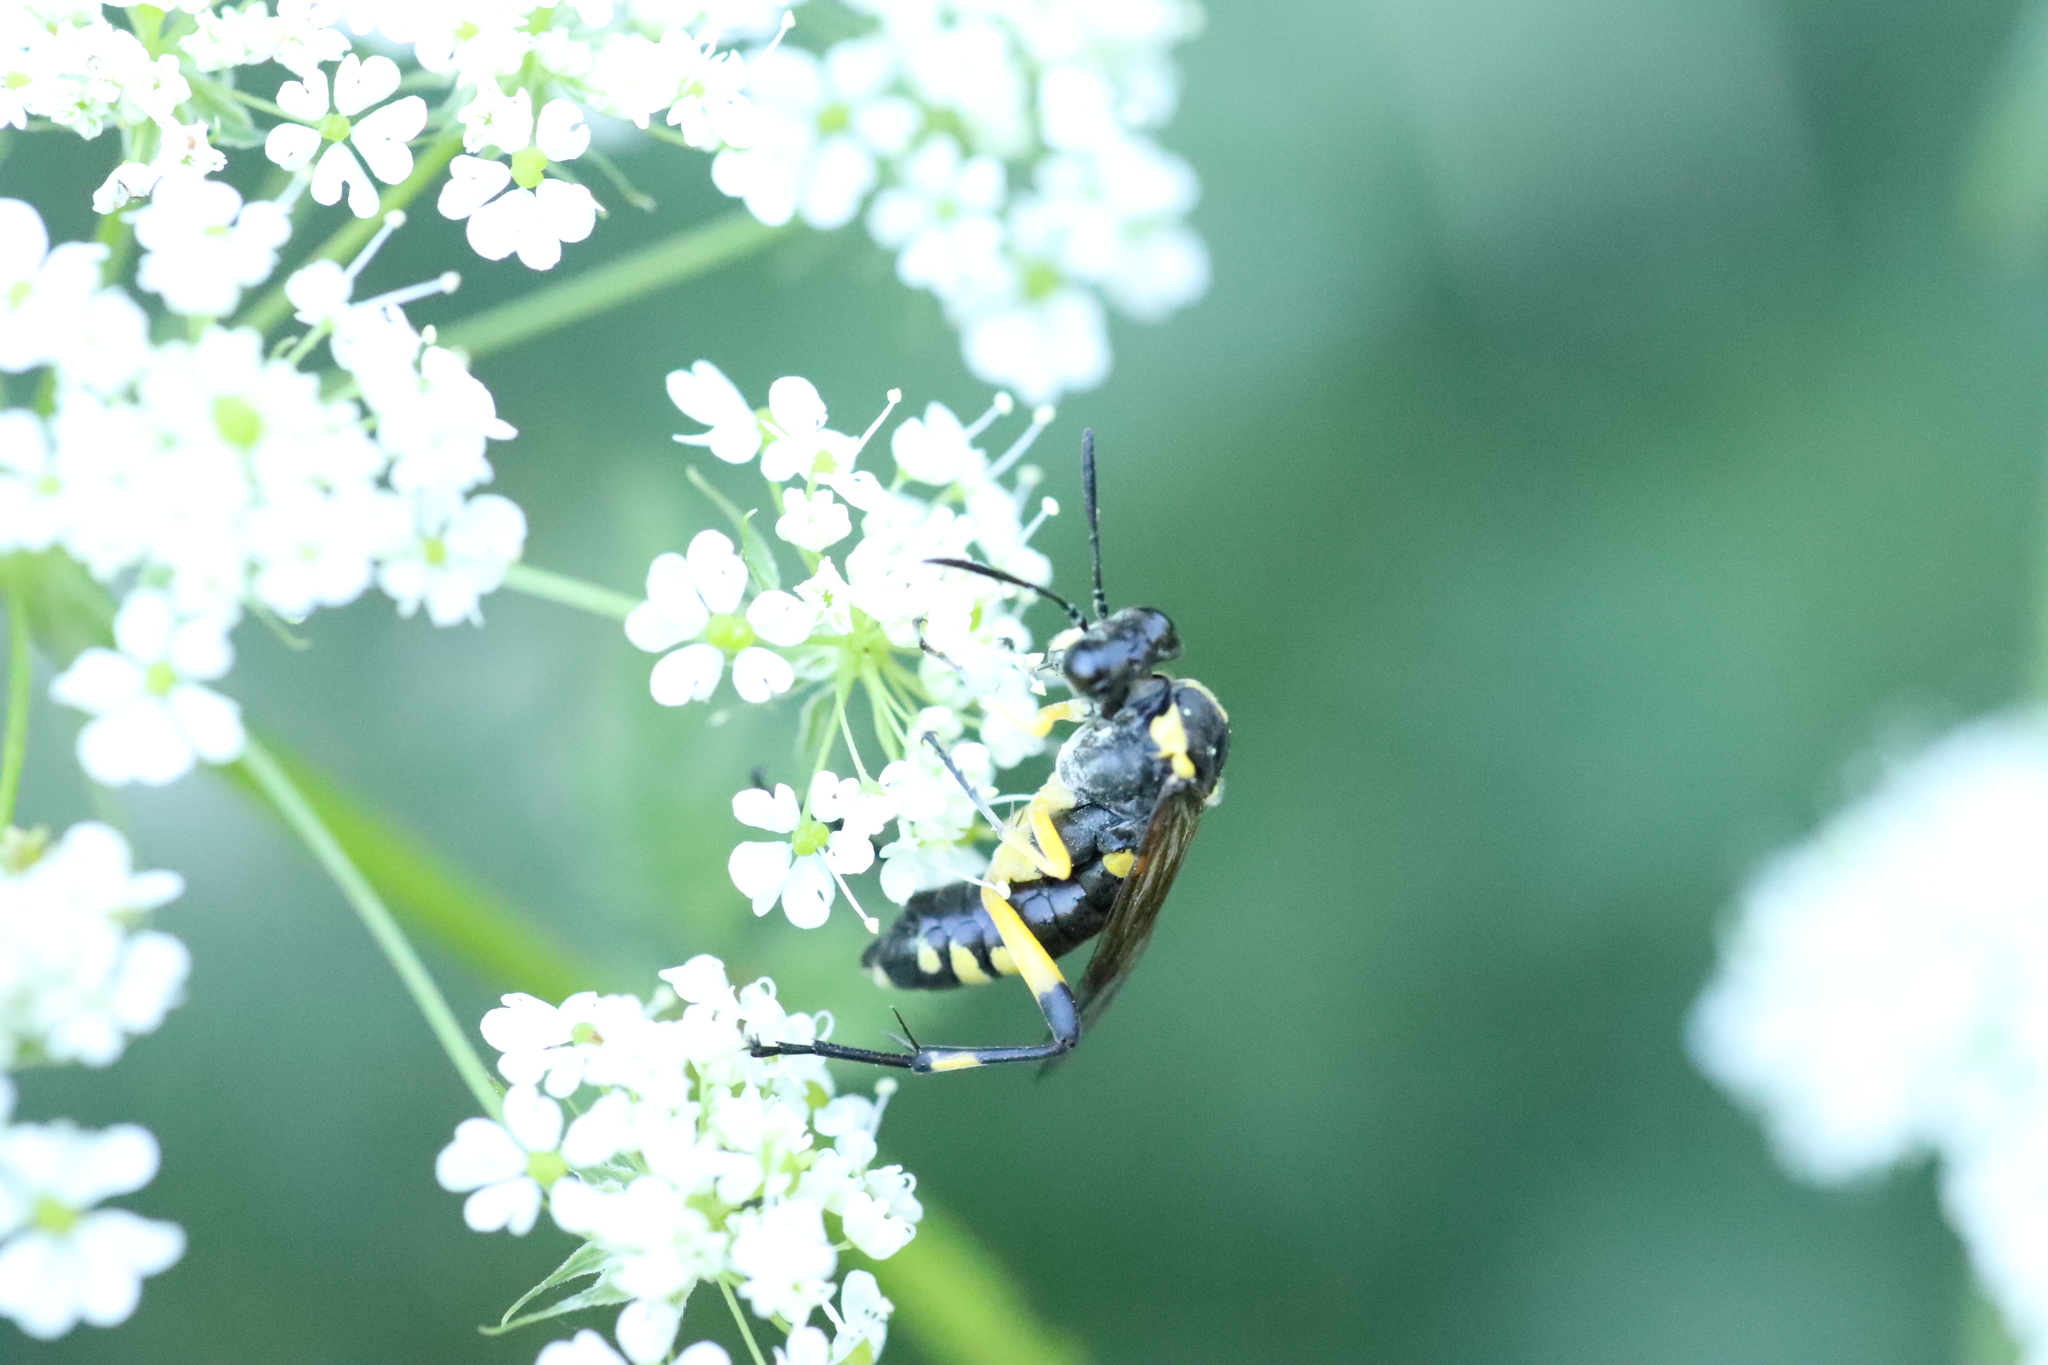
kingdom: Animalia
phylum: Arthropoda
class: Insecta
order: Hymenoptera
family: Tenthredinidae
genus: Macrophya
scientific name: Macrophya montana
